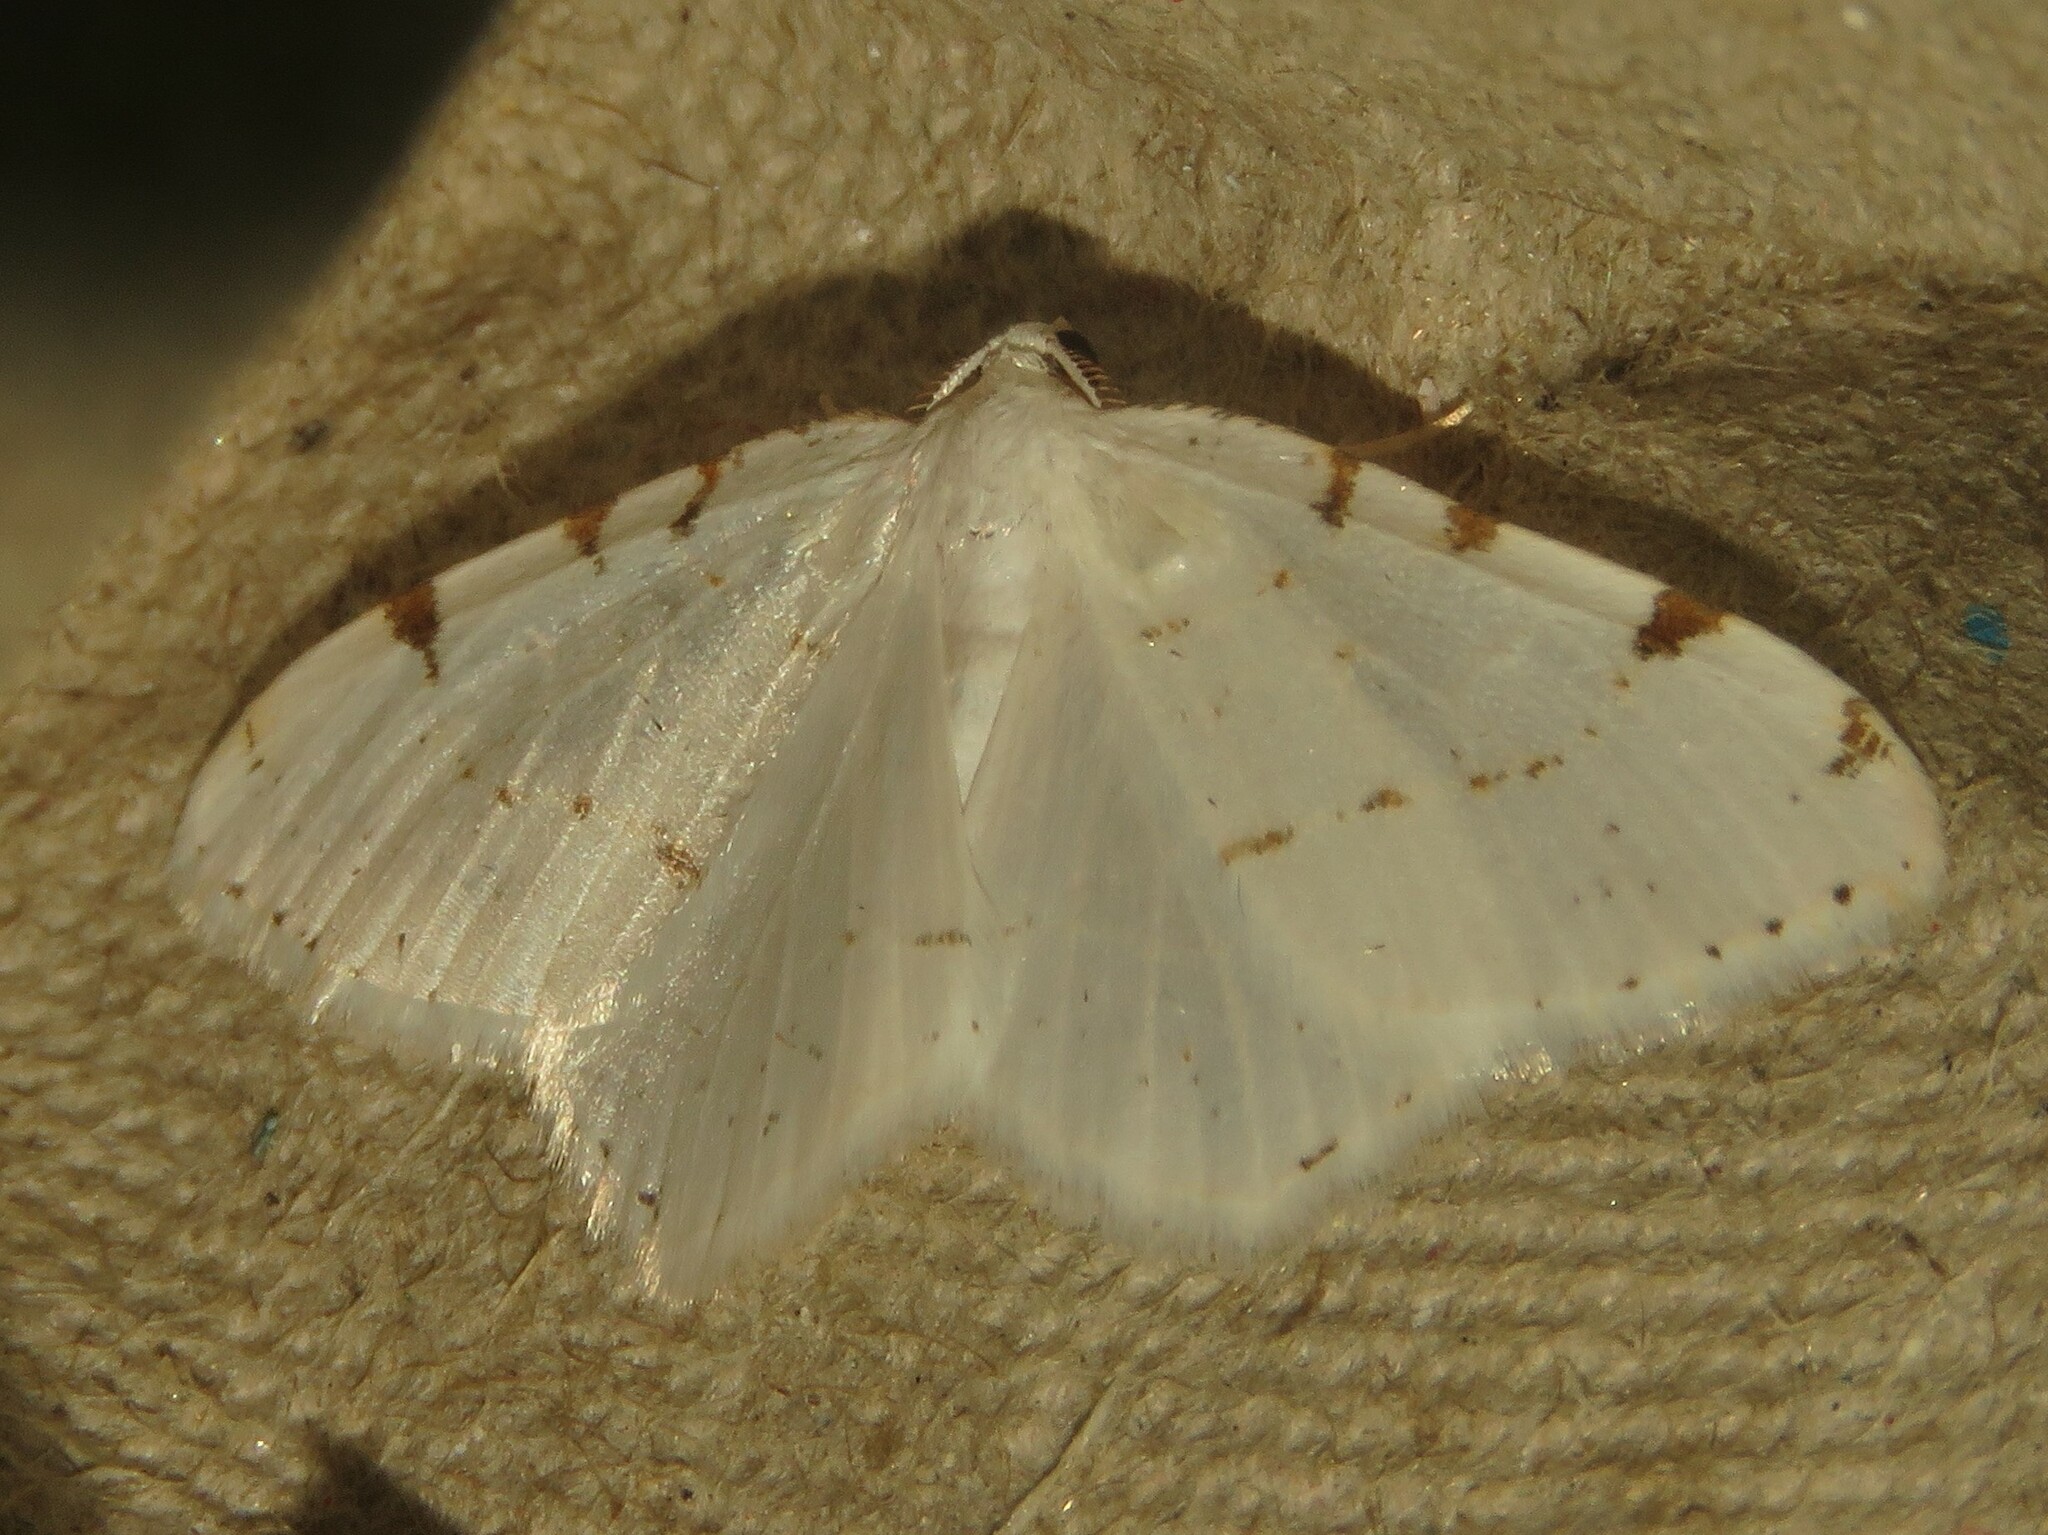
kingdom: Animalia
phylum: Arthropoda
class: Insecta
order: Lepidoptera
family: Geometridae
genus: Macaria
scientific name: Macaria pustularia
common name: Lesser maple spanworm moth
